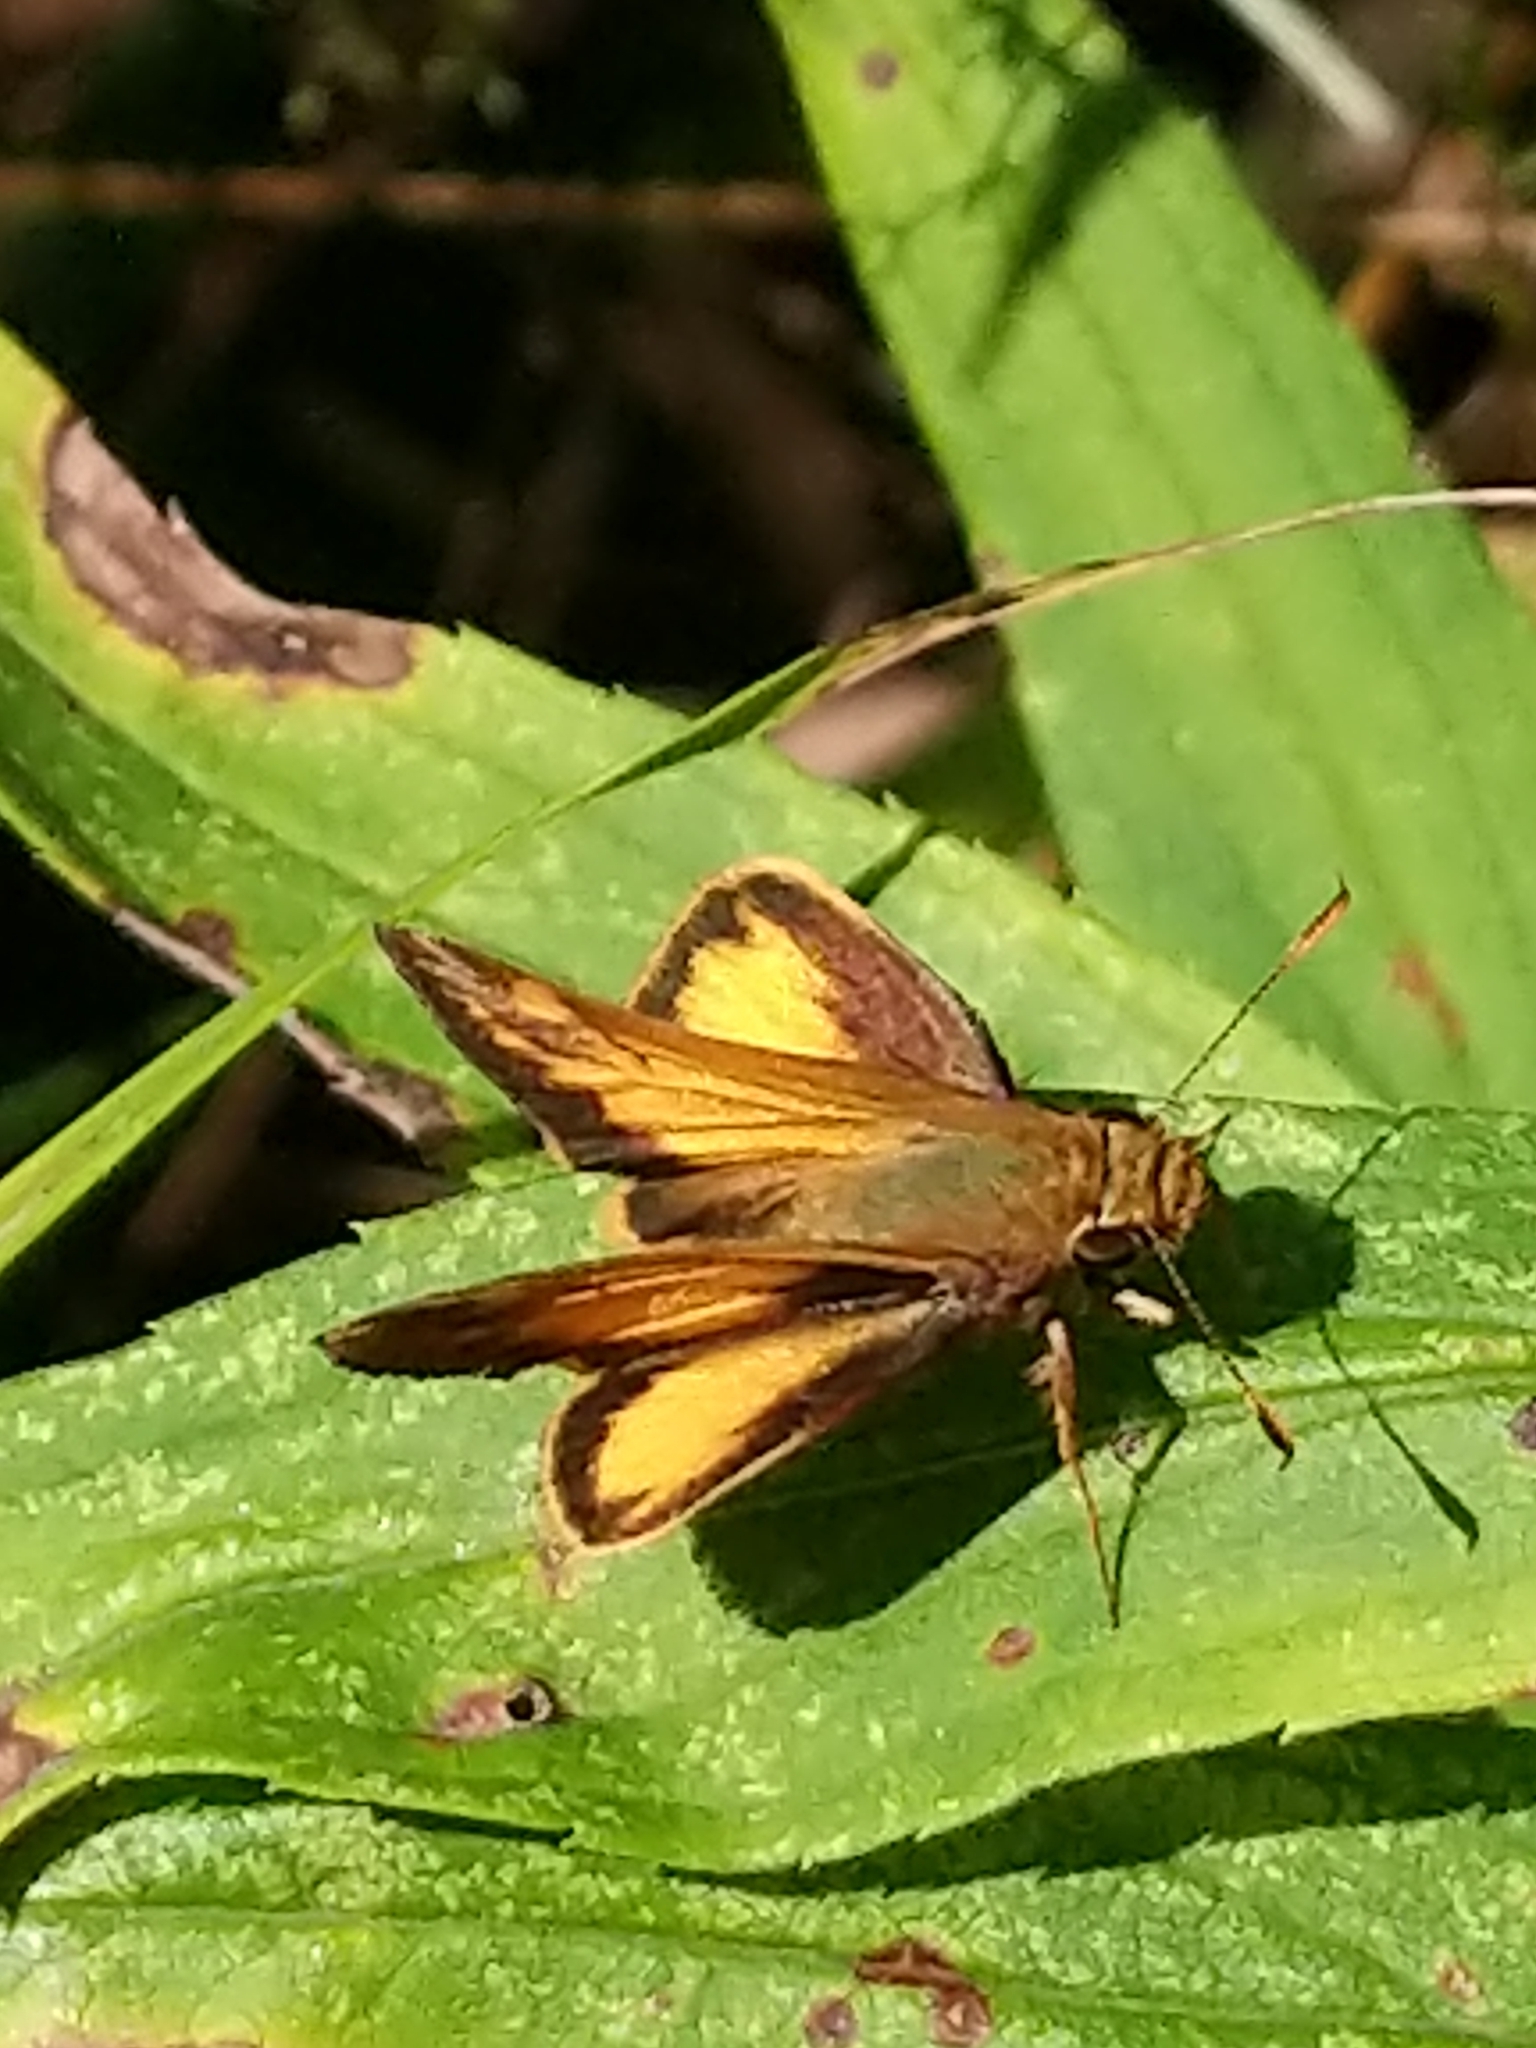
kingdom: Animalia
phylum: Arthropoda
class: Insecta
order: Lepidoptera
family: Hesperiidae
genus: Lon
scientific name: Lon zabulon
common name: Zabulon skipper
